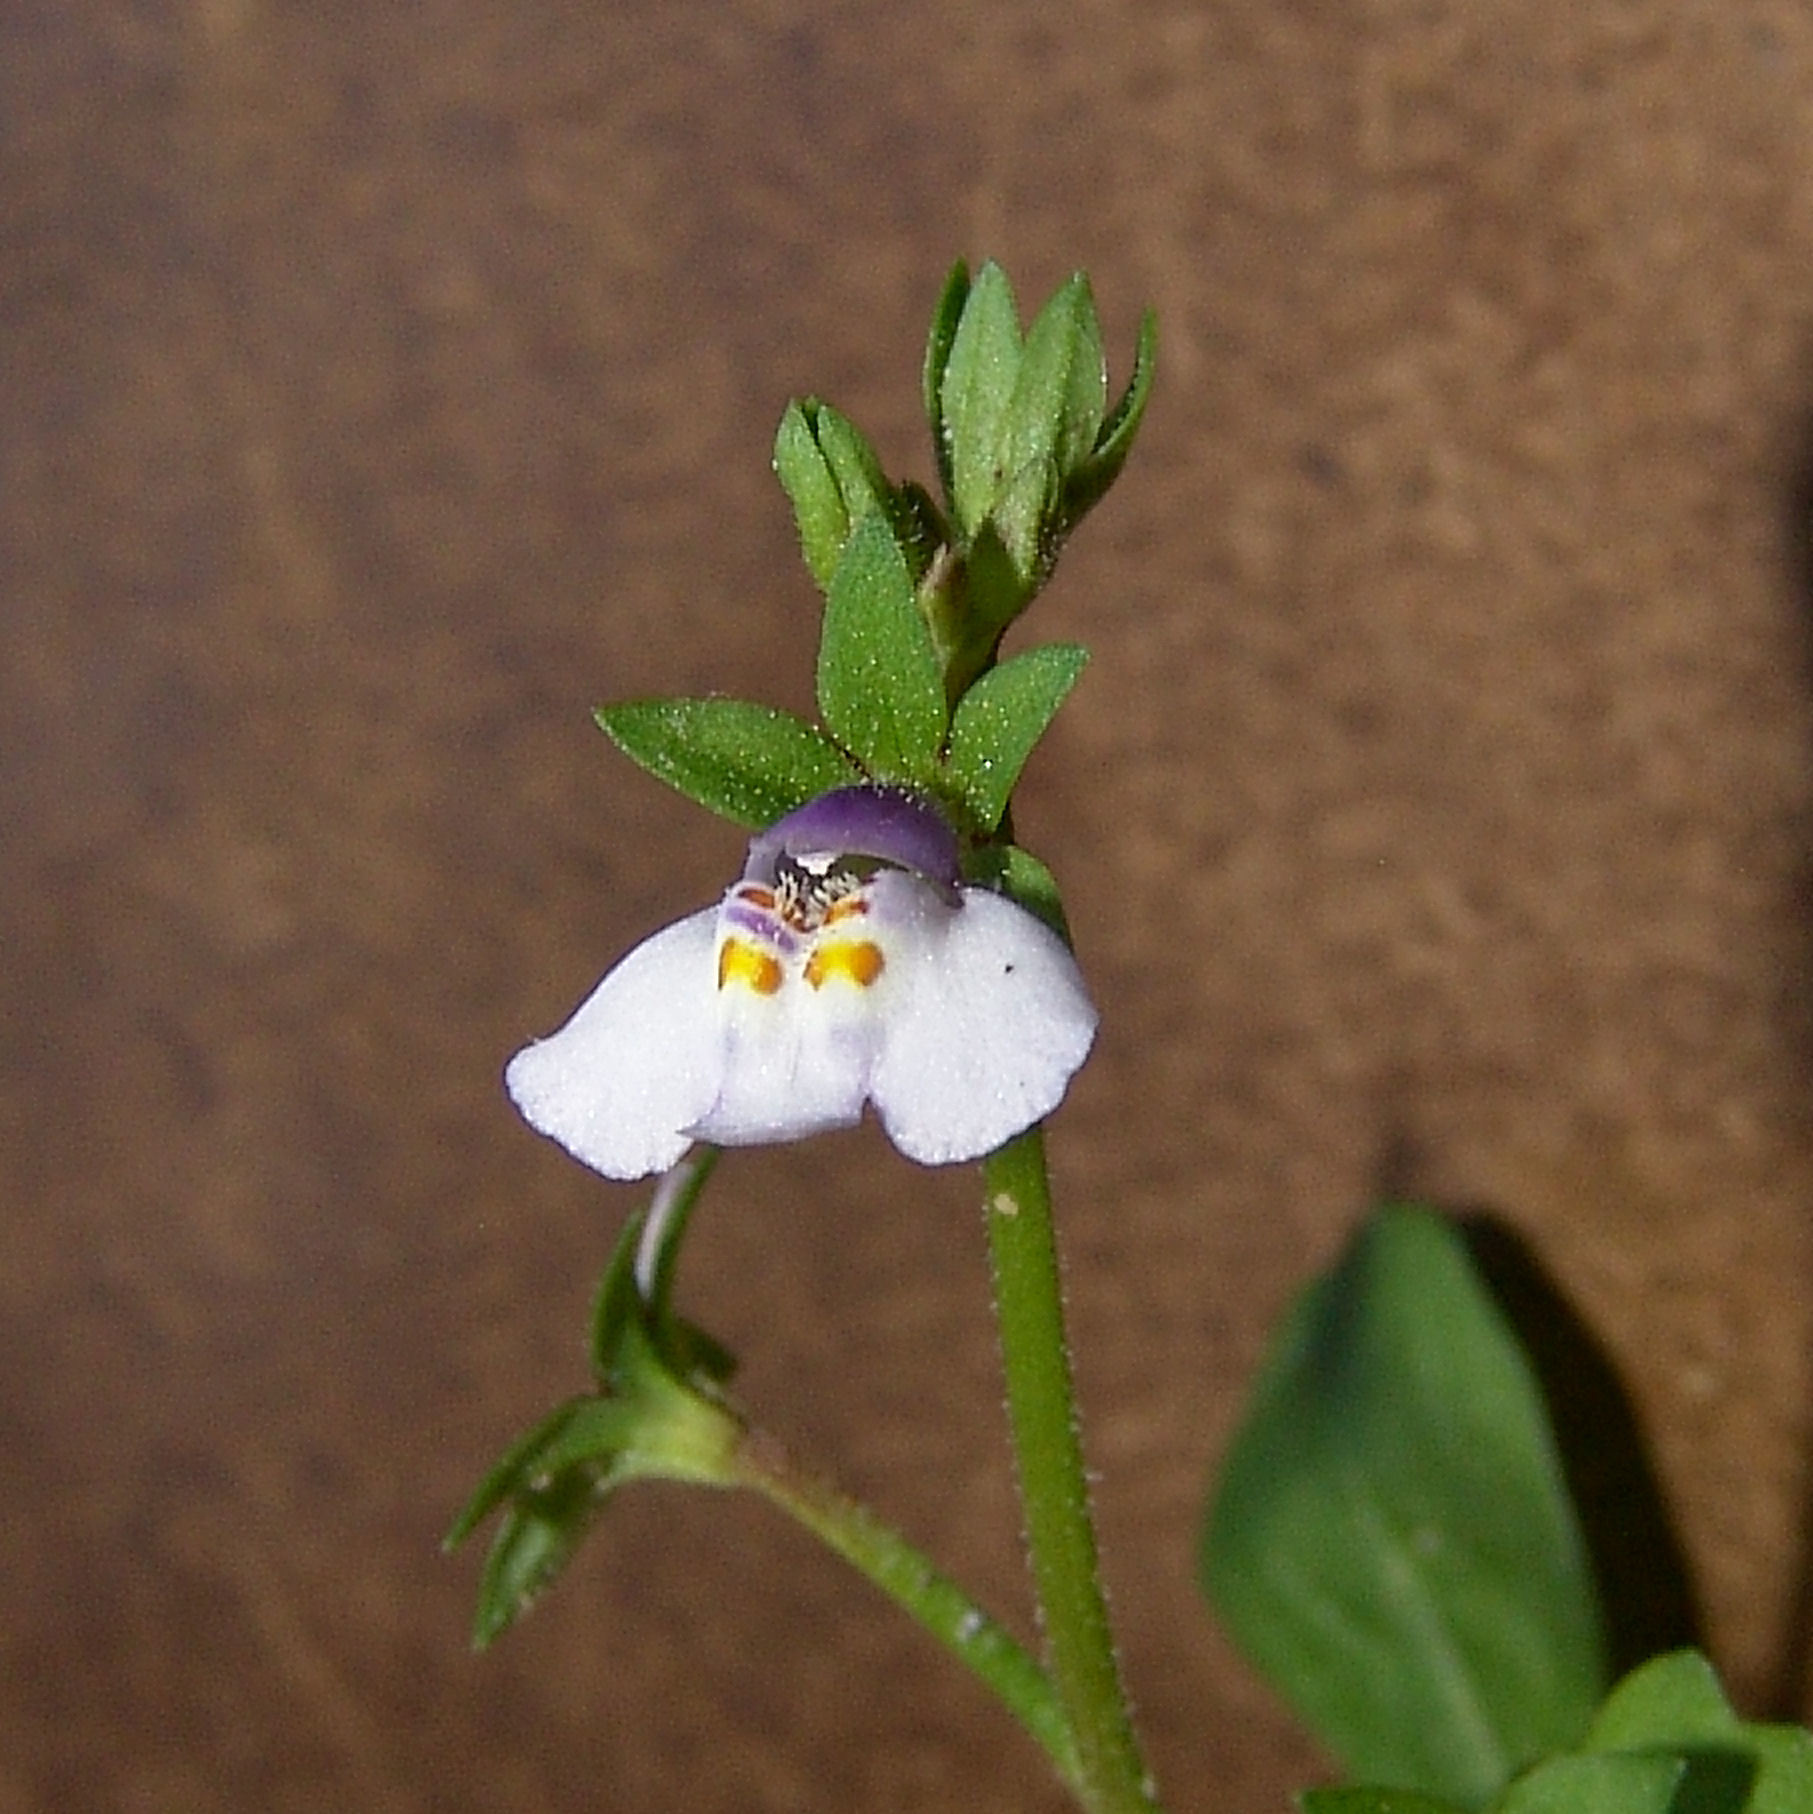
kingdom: Plantae
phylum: Tracheophyta
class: Magnoliopsida
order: Lamiales
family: Mazaceae
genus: Mazus
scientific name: Mazus pumilus
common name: Japanese mazus
